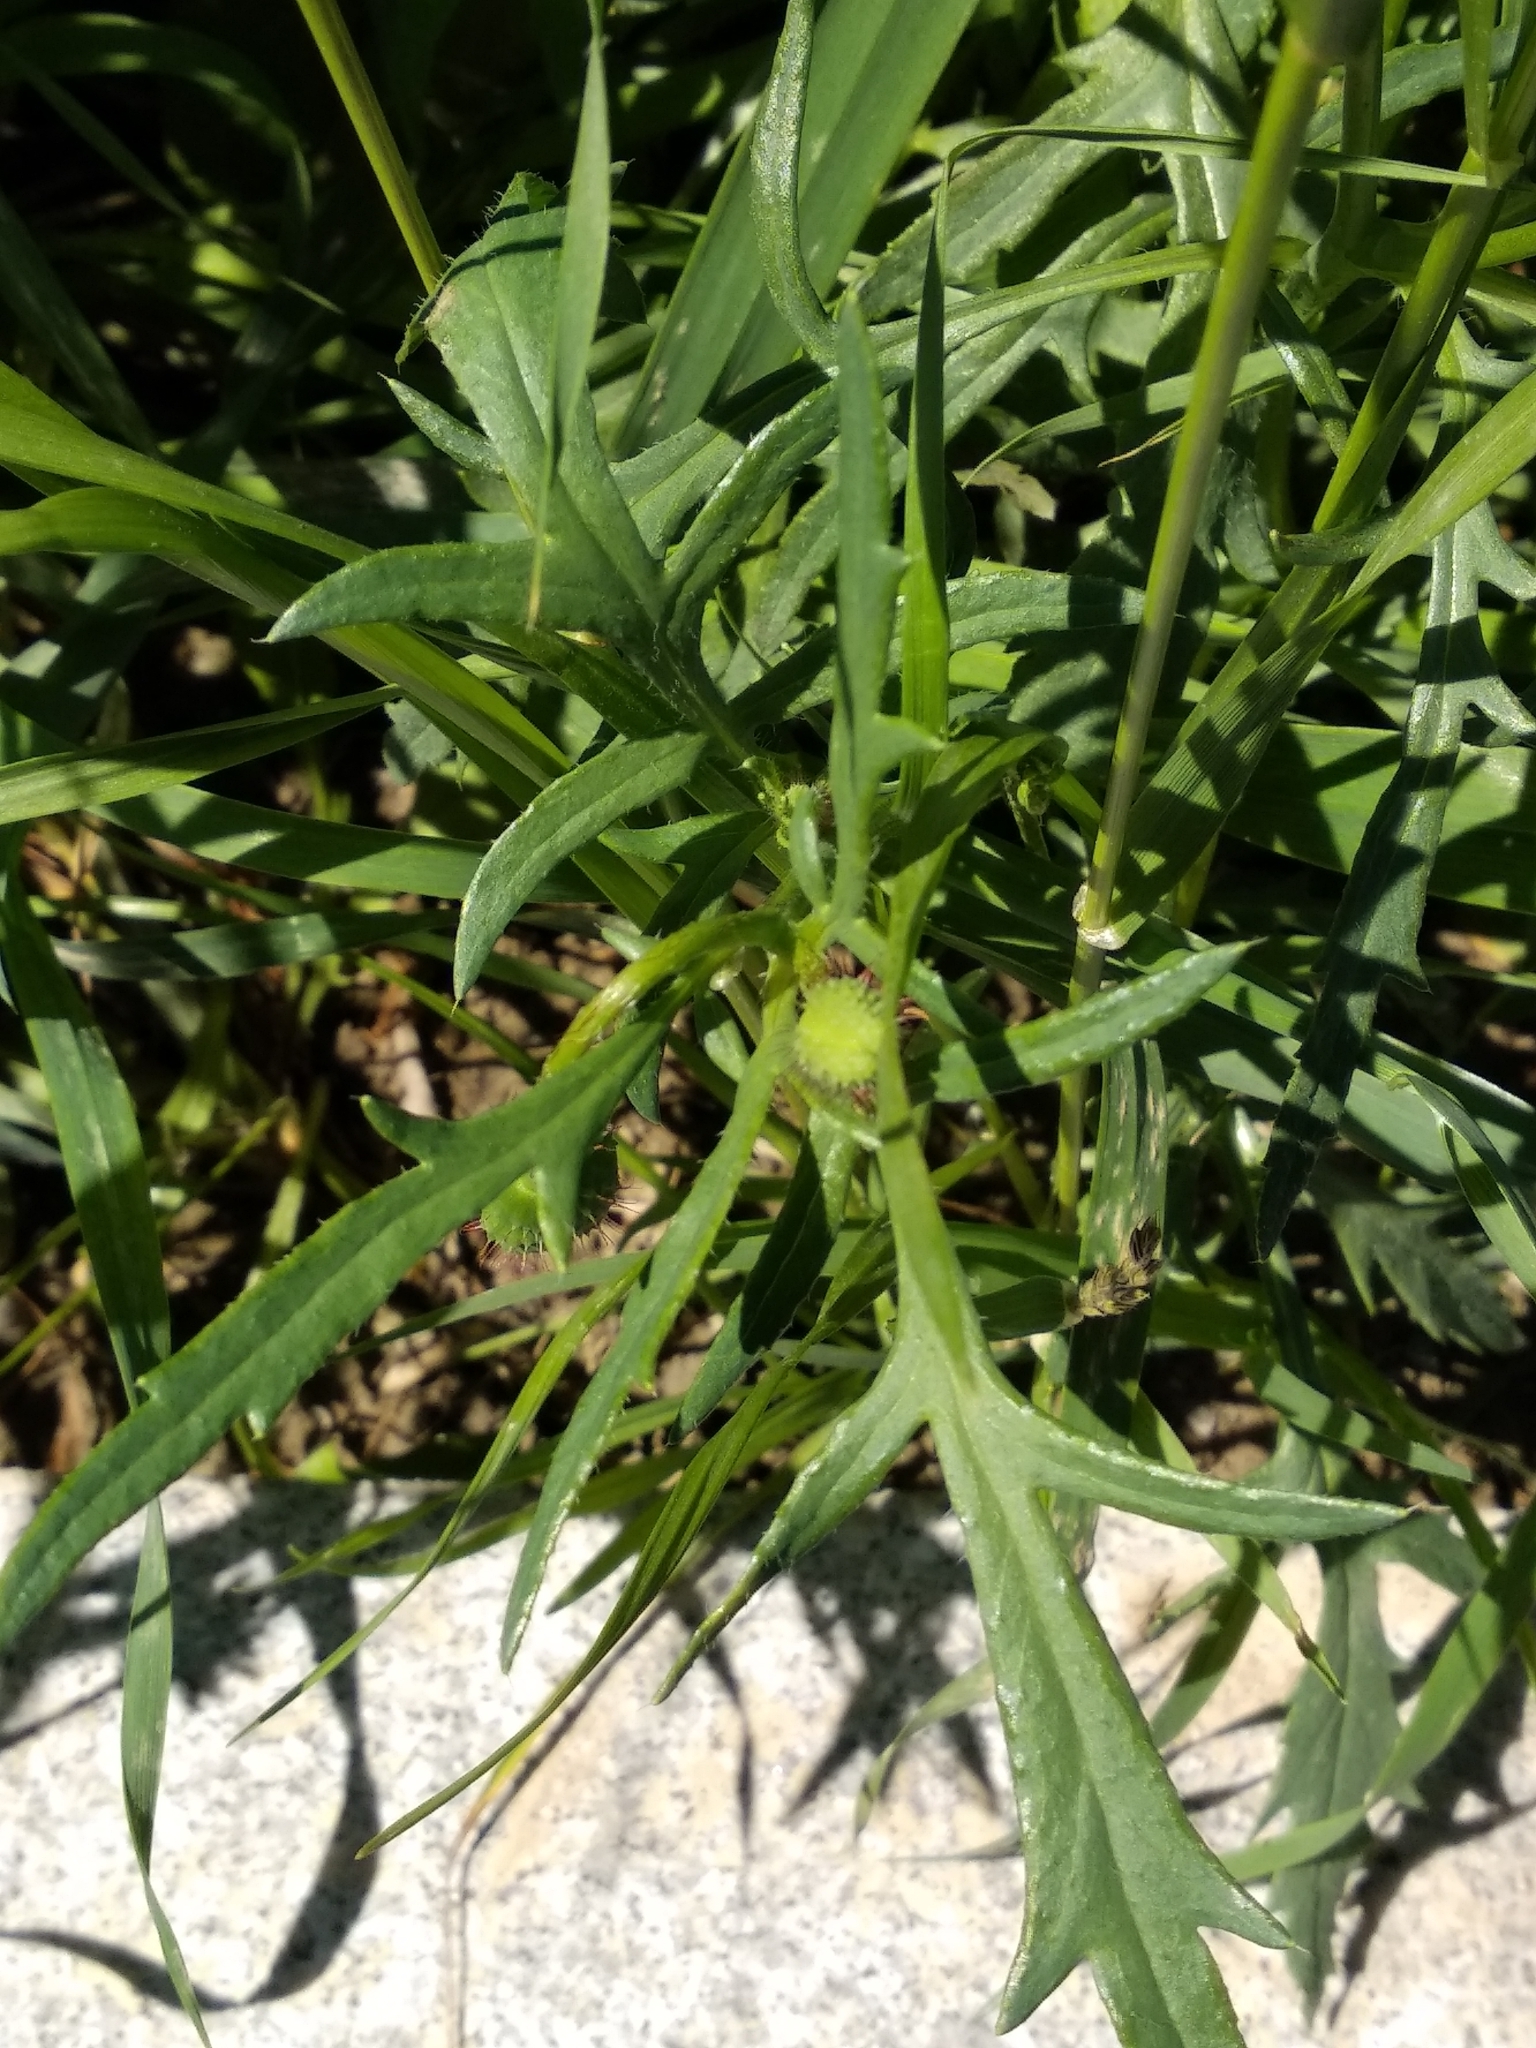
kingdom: Plantae
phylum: Tracheophyta
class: Magnoliopsida
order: Ranunculales
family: Papaveraceae
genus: Papaver
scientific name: Papaver rhoeas
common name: Corn poppy
